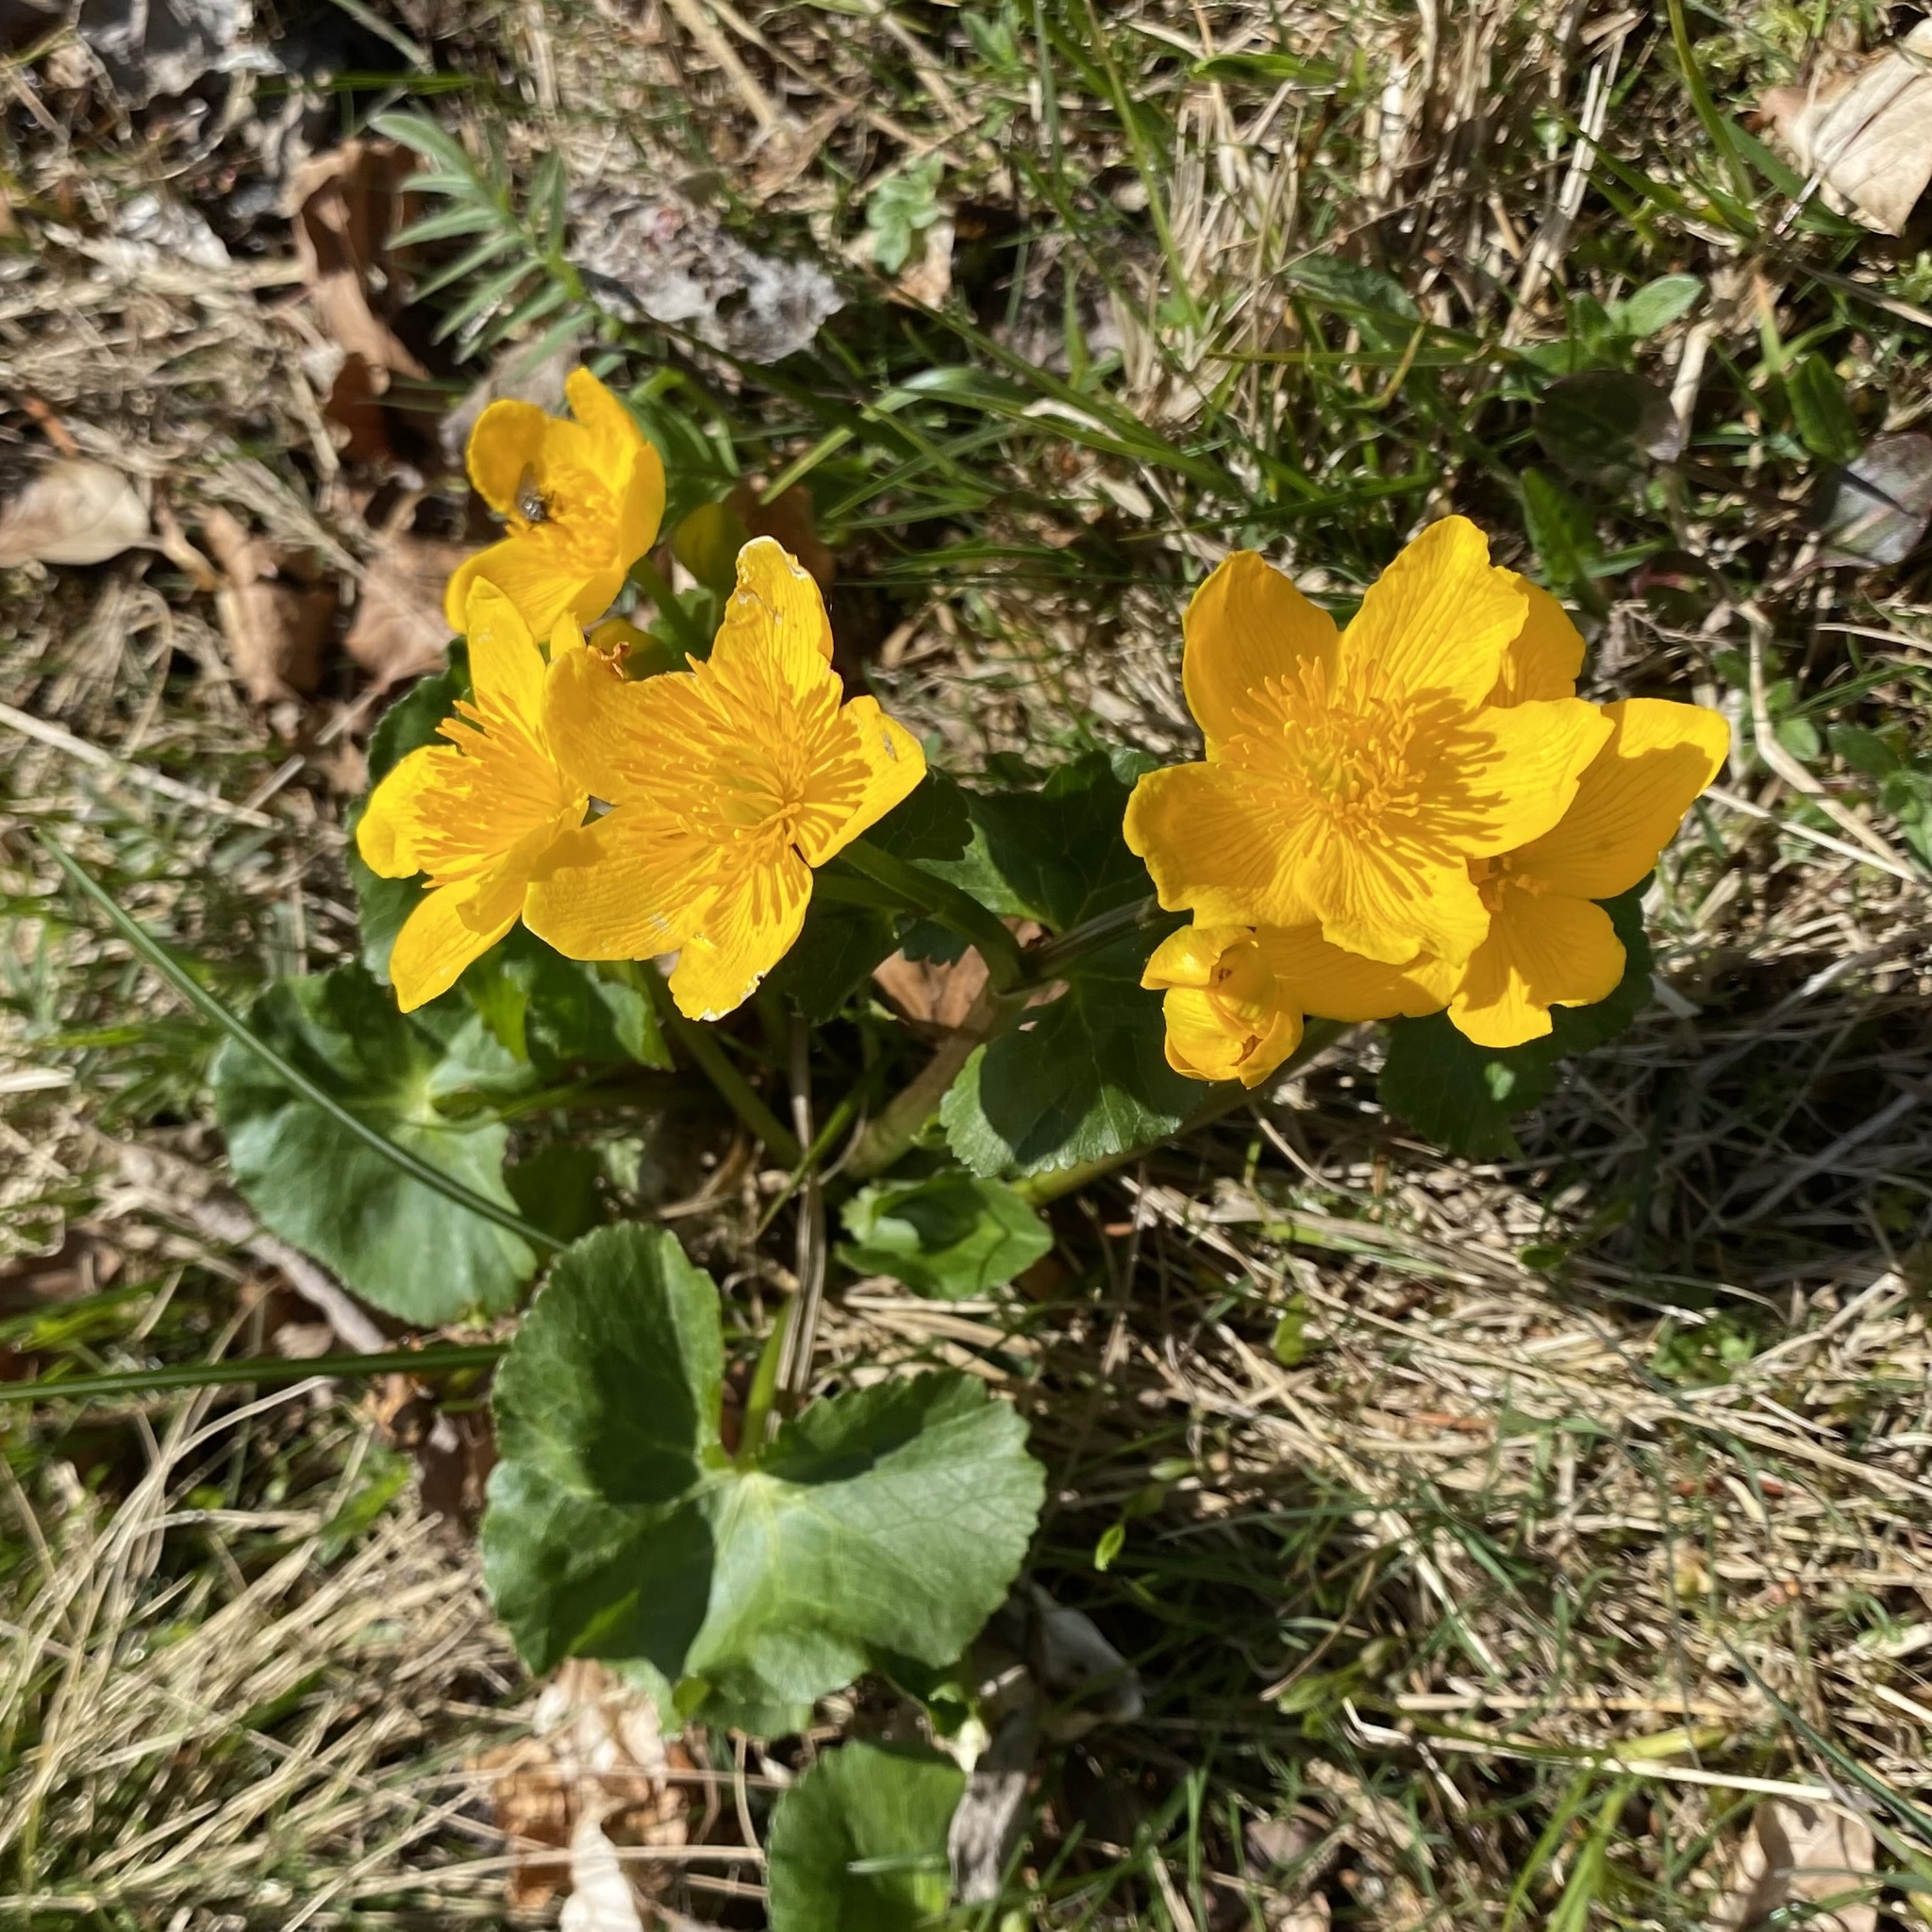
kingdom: Plantae
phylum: Tracheophyta
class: Magnoliopsida
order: Ranunculales
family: Ranunculaceae
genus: Caltha
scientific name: Caltha palustris
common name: Marsh marigold
